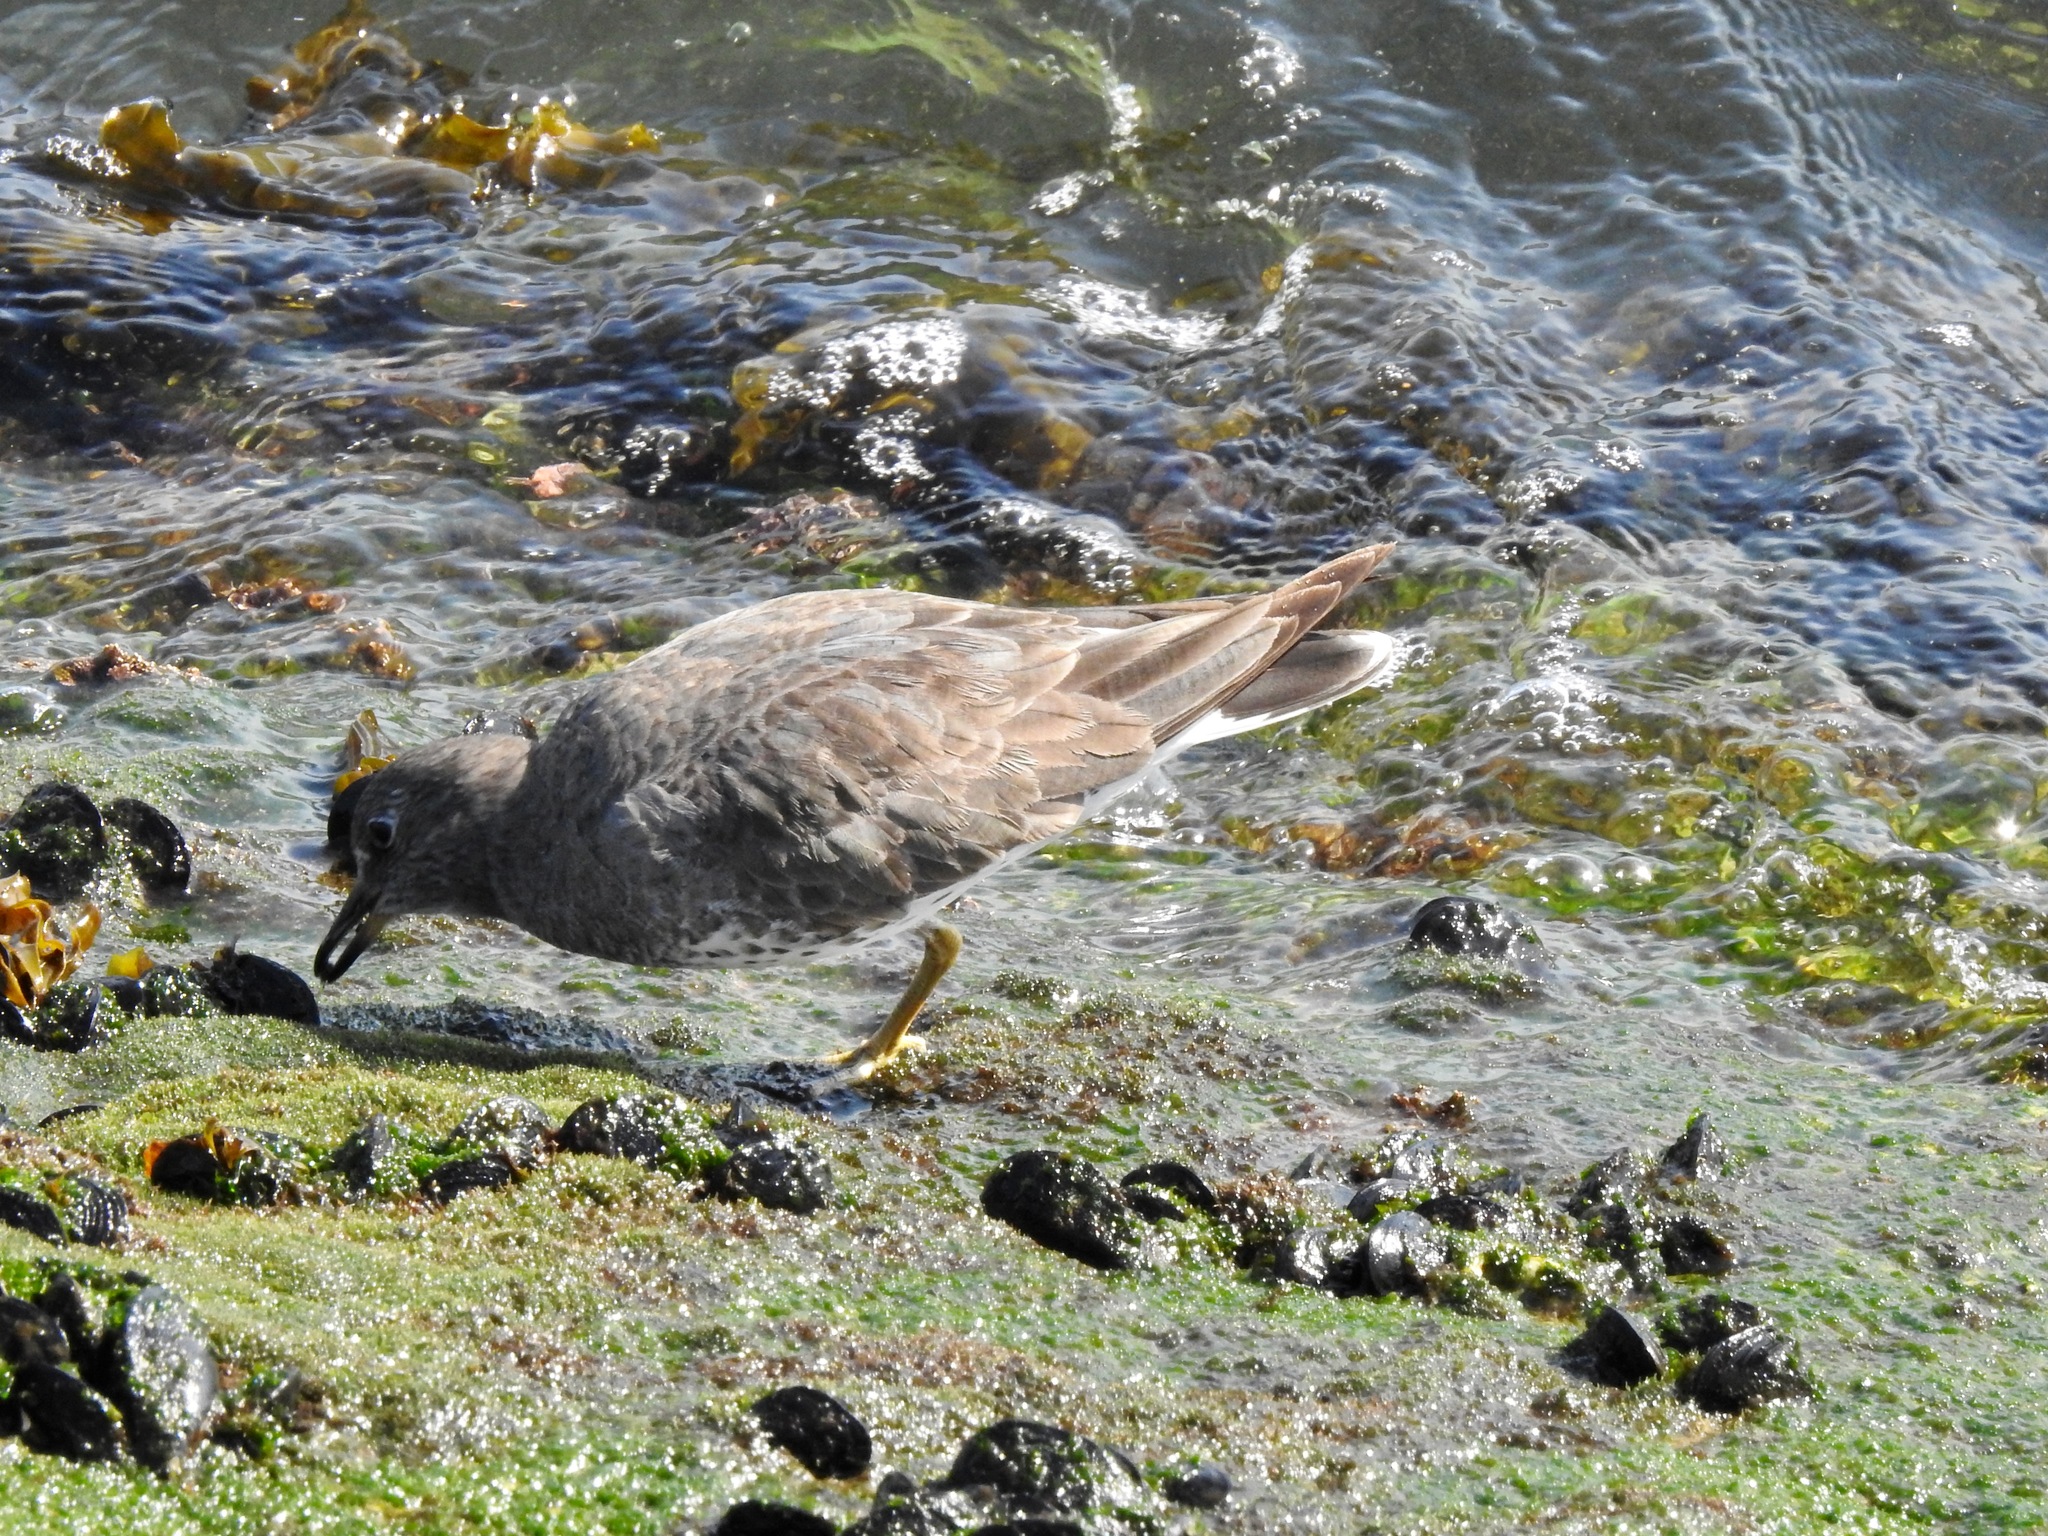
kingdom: Animalia
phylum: Chordata
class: Aves
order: Charadriiformes
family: Scolopacidae
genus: Calidris
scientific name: Calidris virgata
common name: Surfbird
